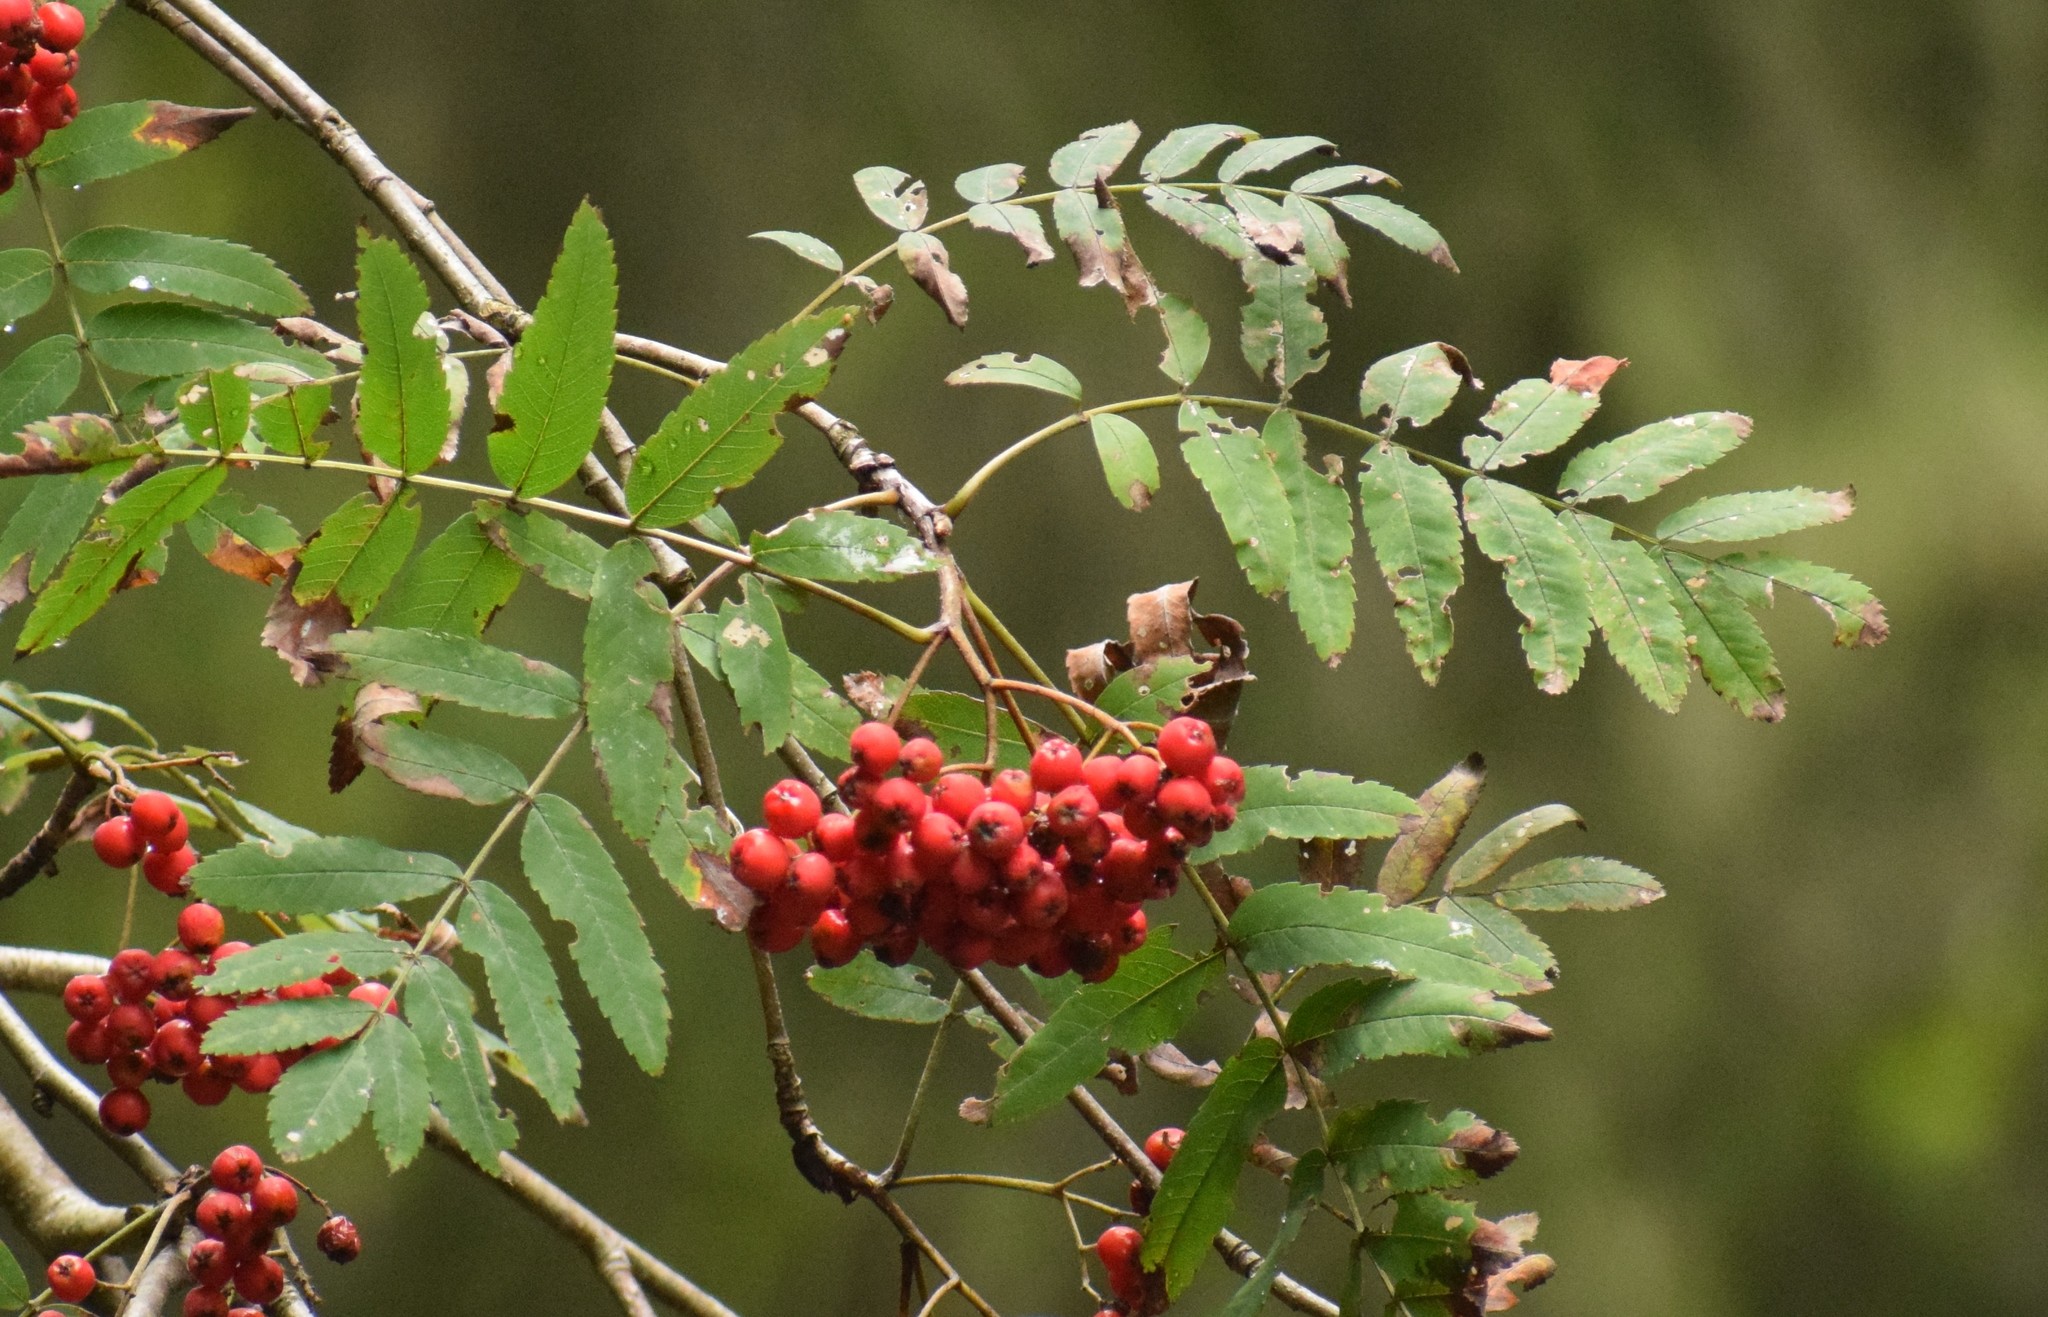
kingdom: Plantae
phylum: Tracheophyta
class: Magnoliopsida
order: Rosales
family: Rosaceae
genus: Sorbus
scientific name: Sorbus aucuparia
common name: Rowan
